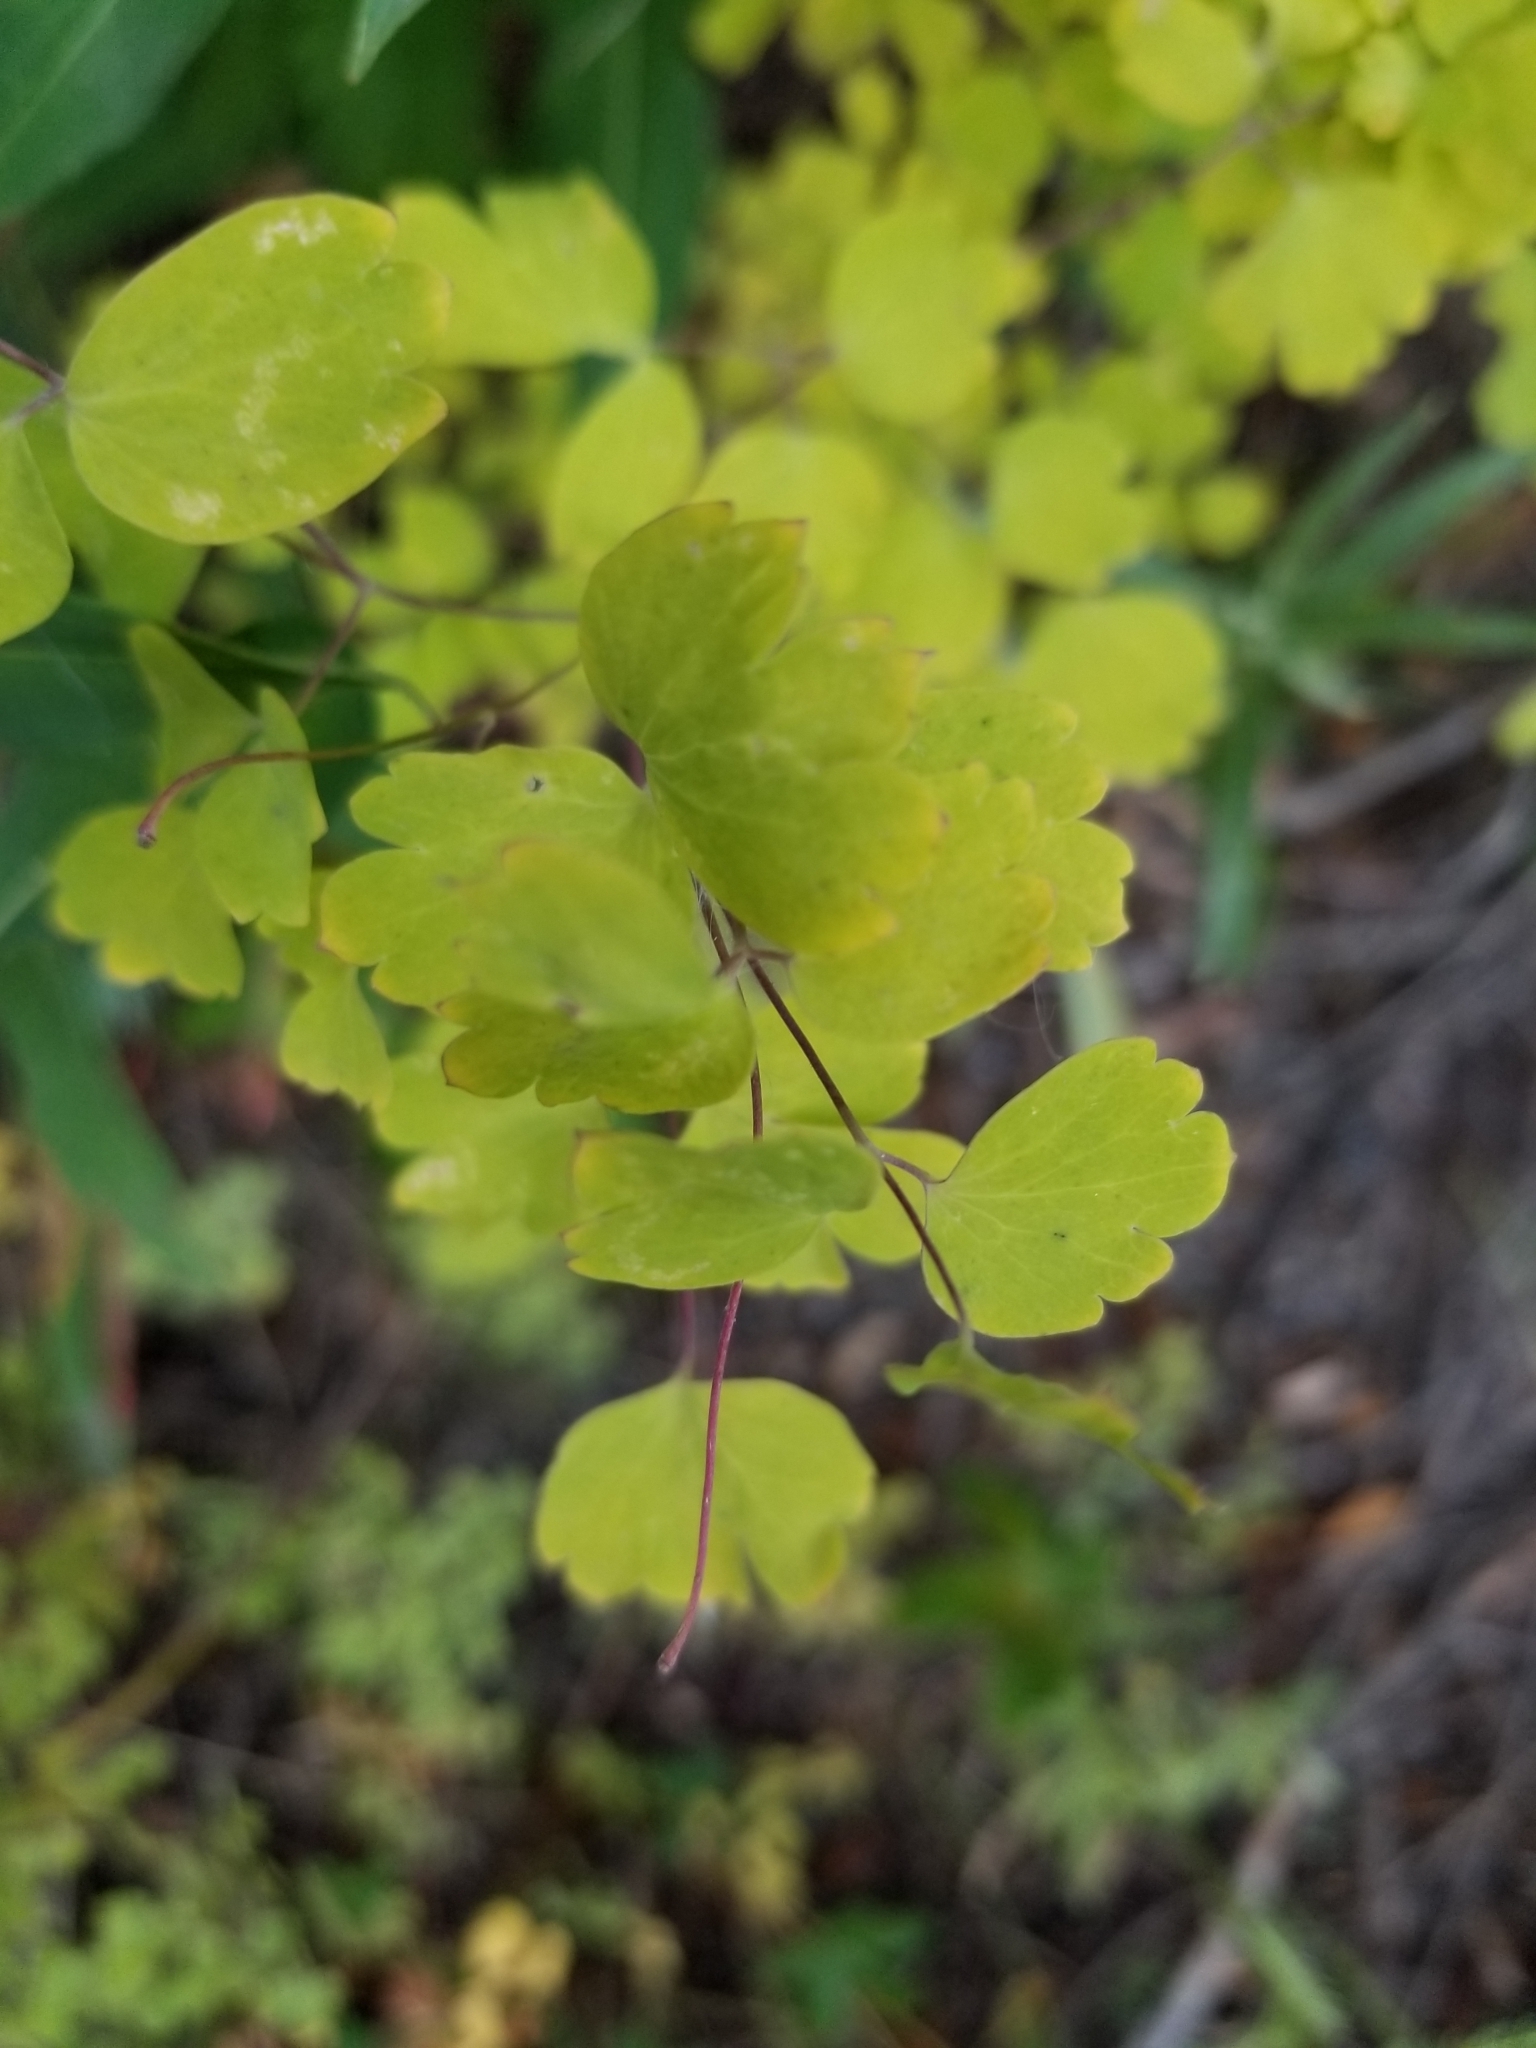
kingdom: Plantae
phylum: Tracheophyta
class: Magnoliopsida
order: Ranunculales
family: Ranunculaceae
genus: Thalictrum
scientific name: Thalictrum fendleri
